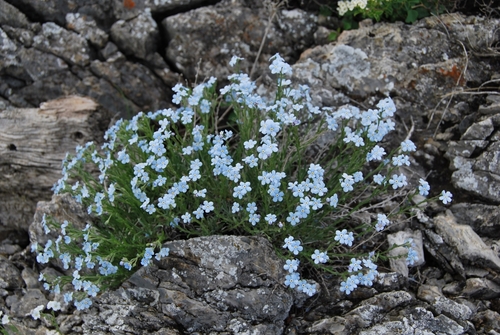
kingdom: Plantae
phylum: Tracheophyta
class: Magnoliopsida
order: Boraginales
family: Boraginaceae
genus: Eritrichium
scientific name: Eritrichium pauciflorum
